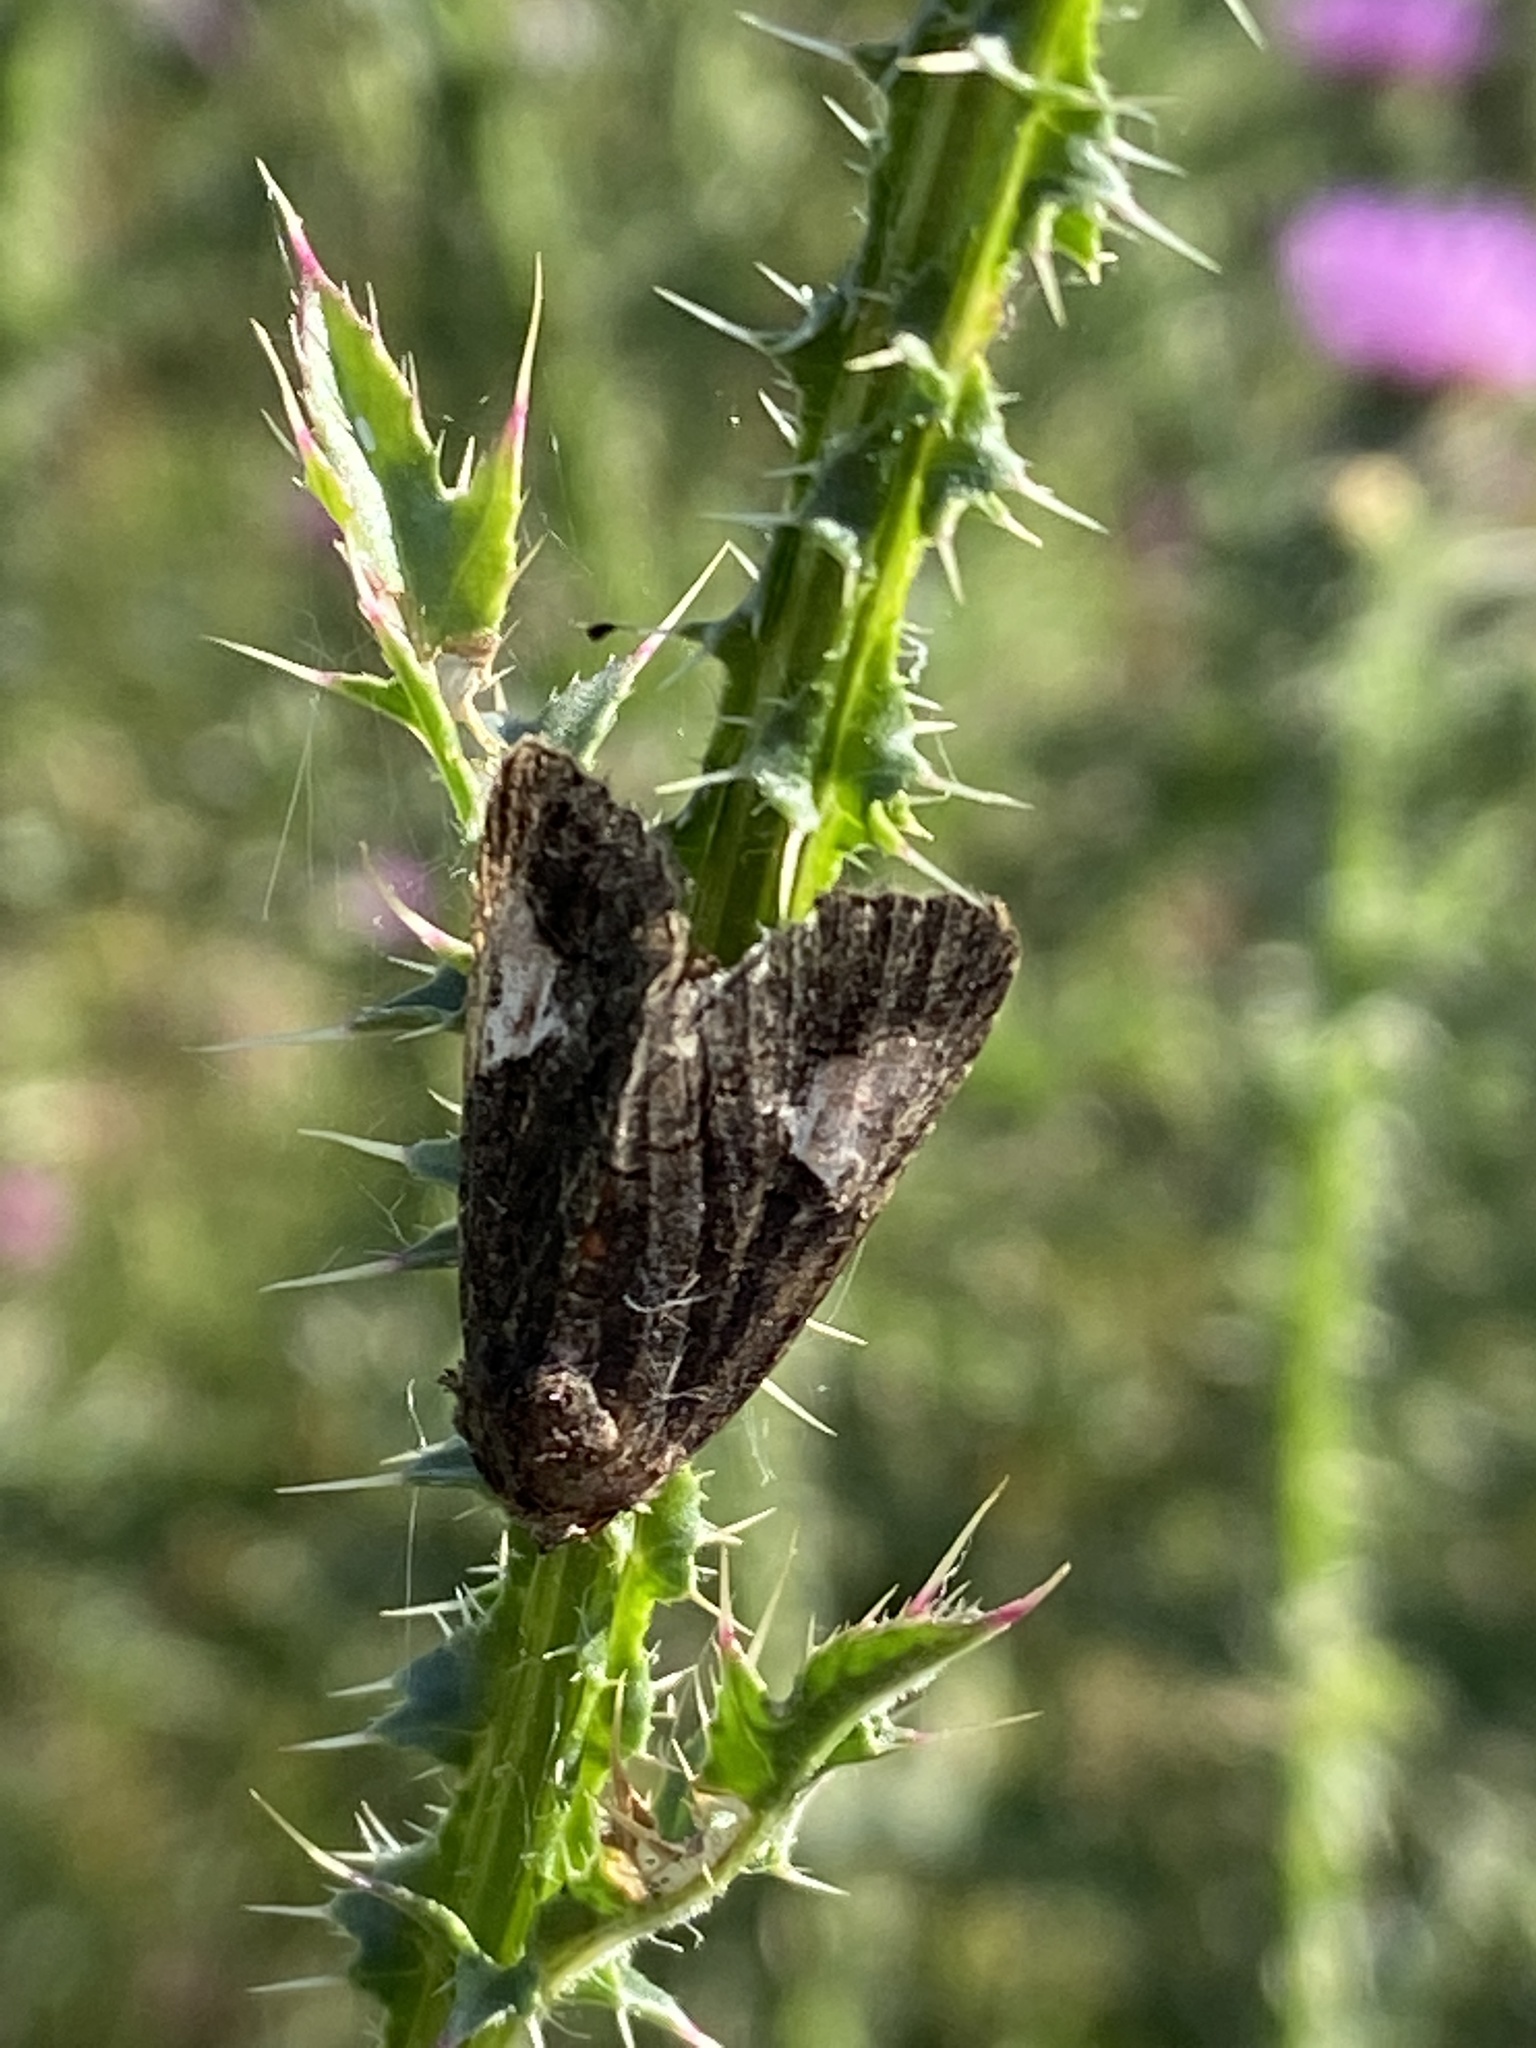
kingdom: Animalia
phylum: Arthropoda
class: Insecta
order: Lepidoptera
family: Noctuidae
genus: Aedia
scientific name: Aedia funesta
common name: The druid
